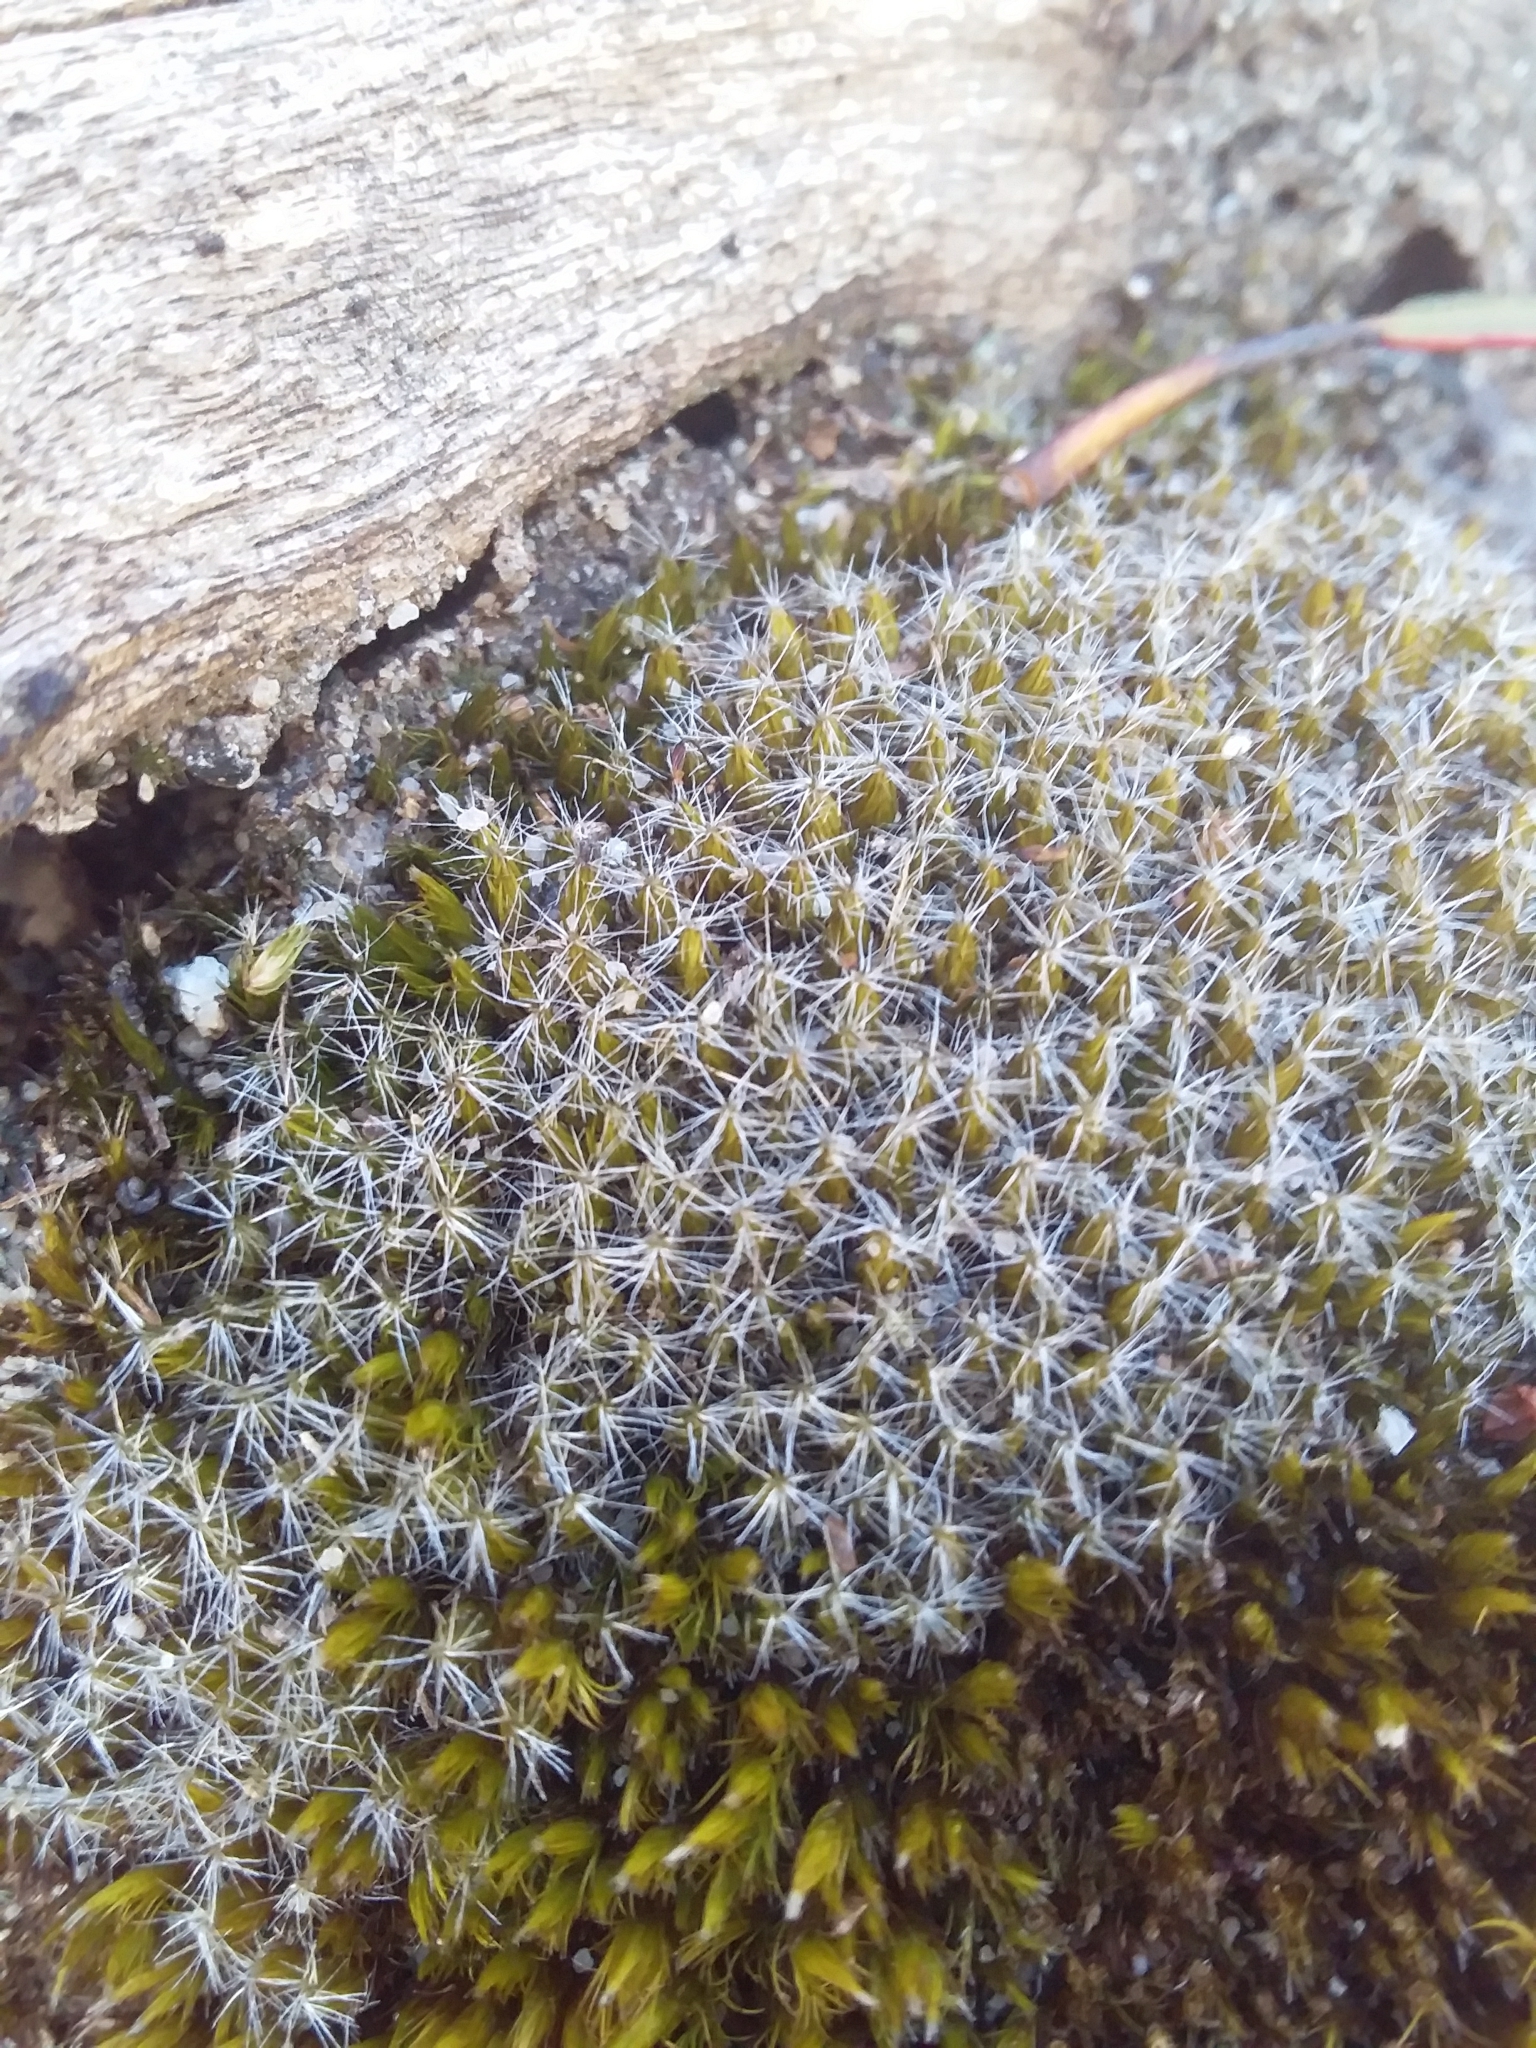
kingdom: Plantae
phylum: Bryophyta
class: Bryopsida
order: Dicranales
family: Leucobryaceae
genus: Campylopus
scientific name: Campylopus introflexus
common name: Heath star moss
